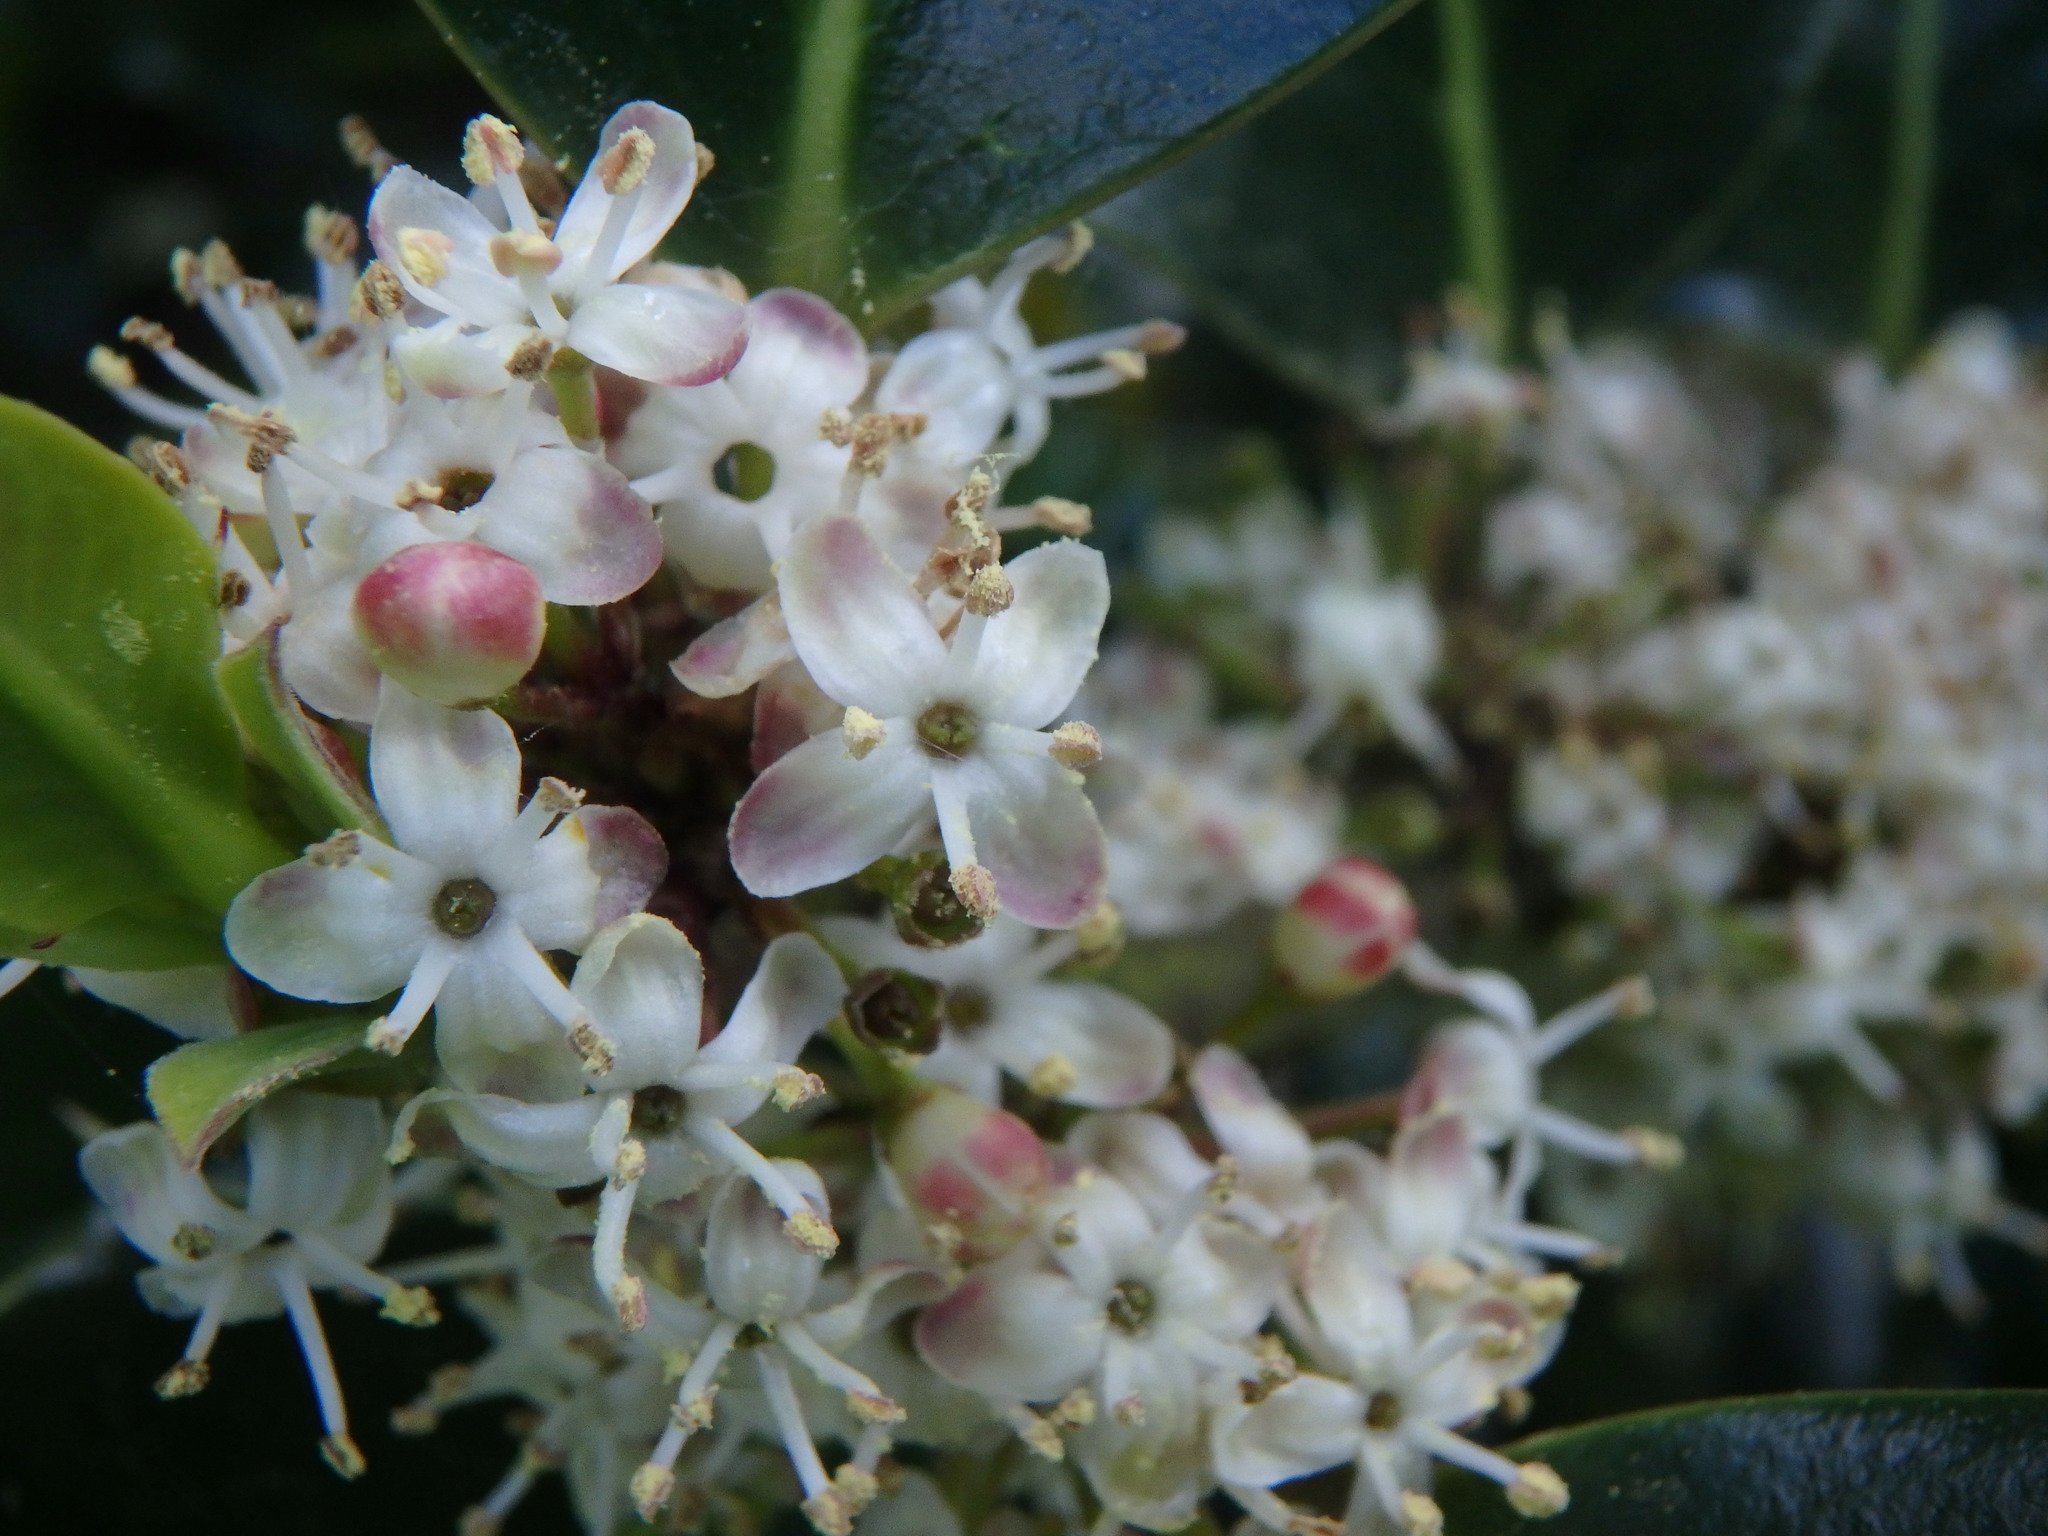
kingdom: Plantae
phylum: Tracheophyta
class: Magnoliopsida
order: Aquifoliales
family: Aquifoliaceae
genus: Ilex
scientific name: Ilex aquifolium
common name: English holly
